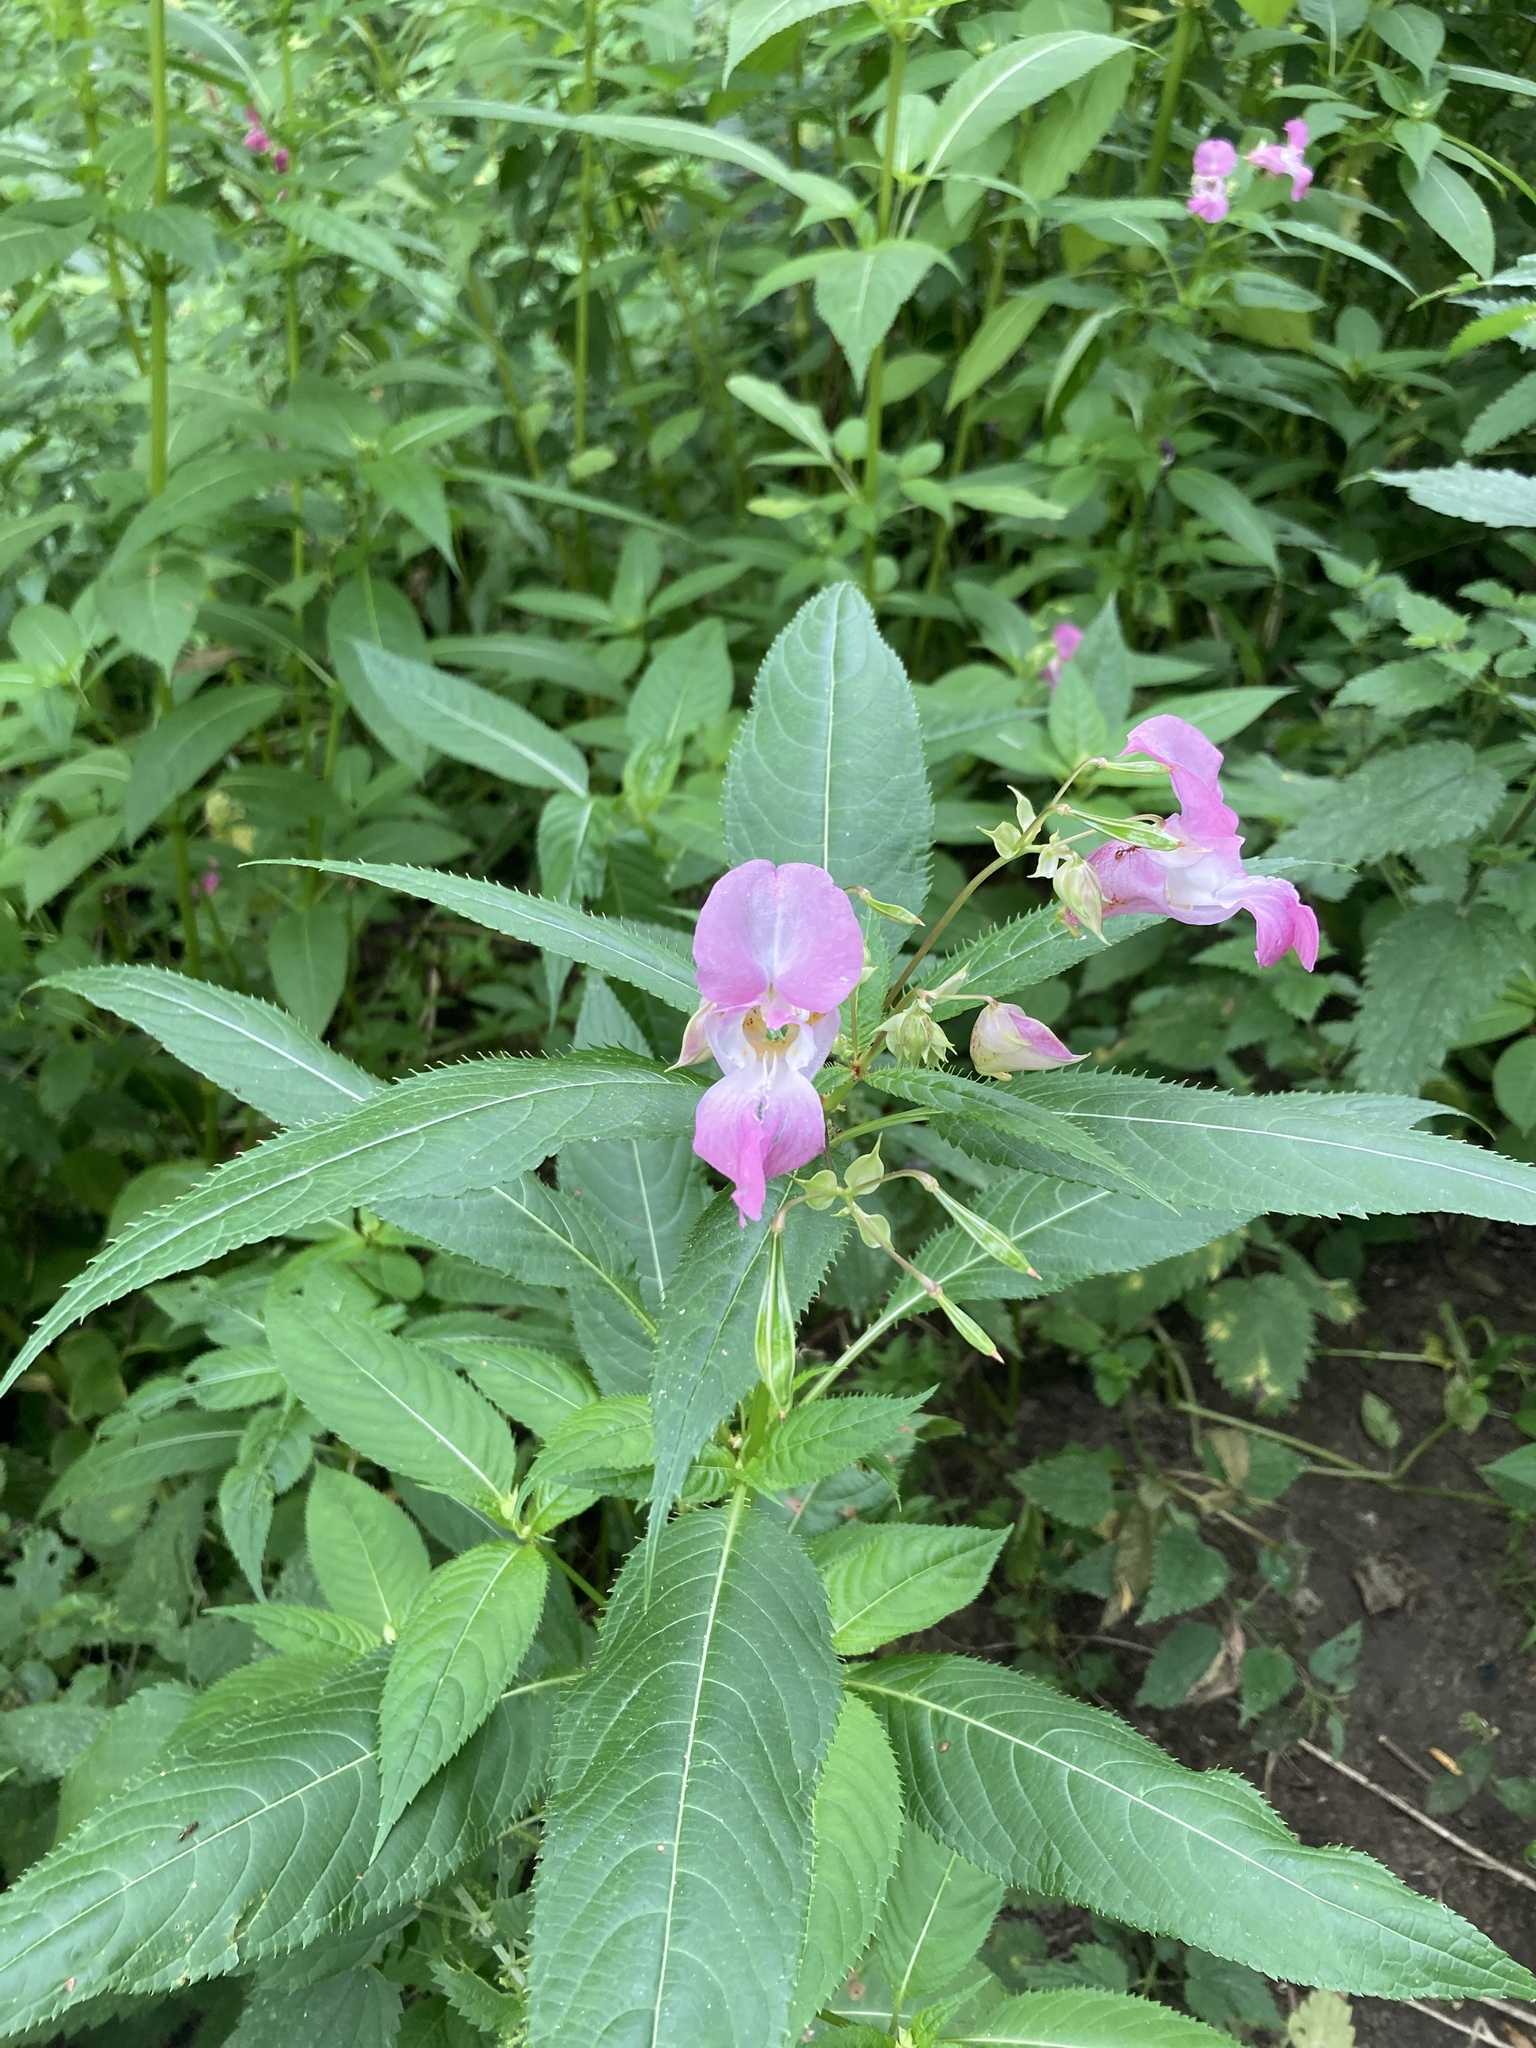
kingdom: Plantae
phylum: Tracheophyta
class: Magnoliopsida
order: Ericales
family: Balsaminaceae
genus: Impatiens
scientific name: Impatiens glandulifera
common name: Himalayan balsam
